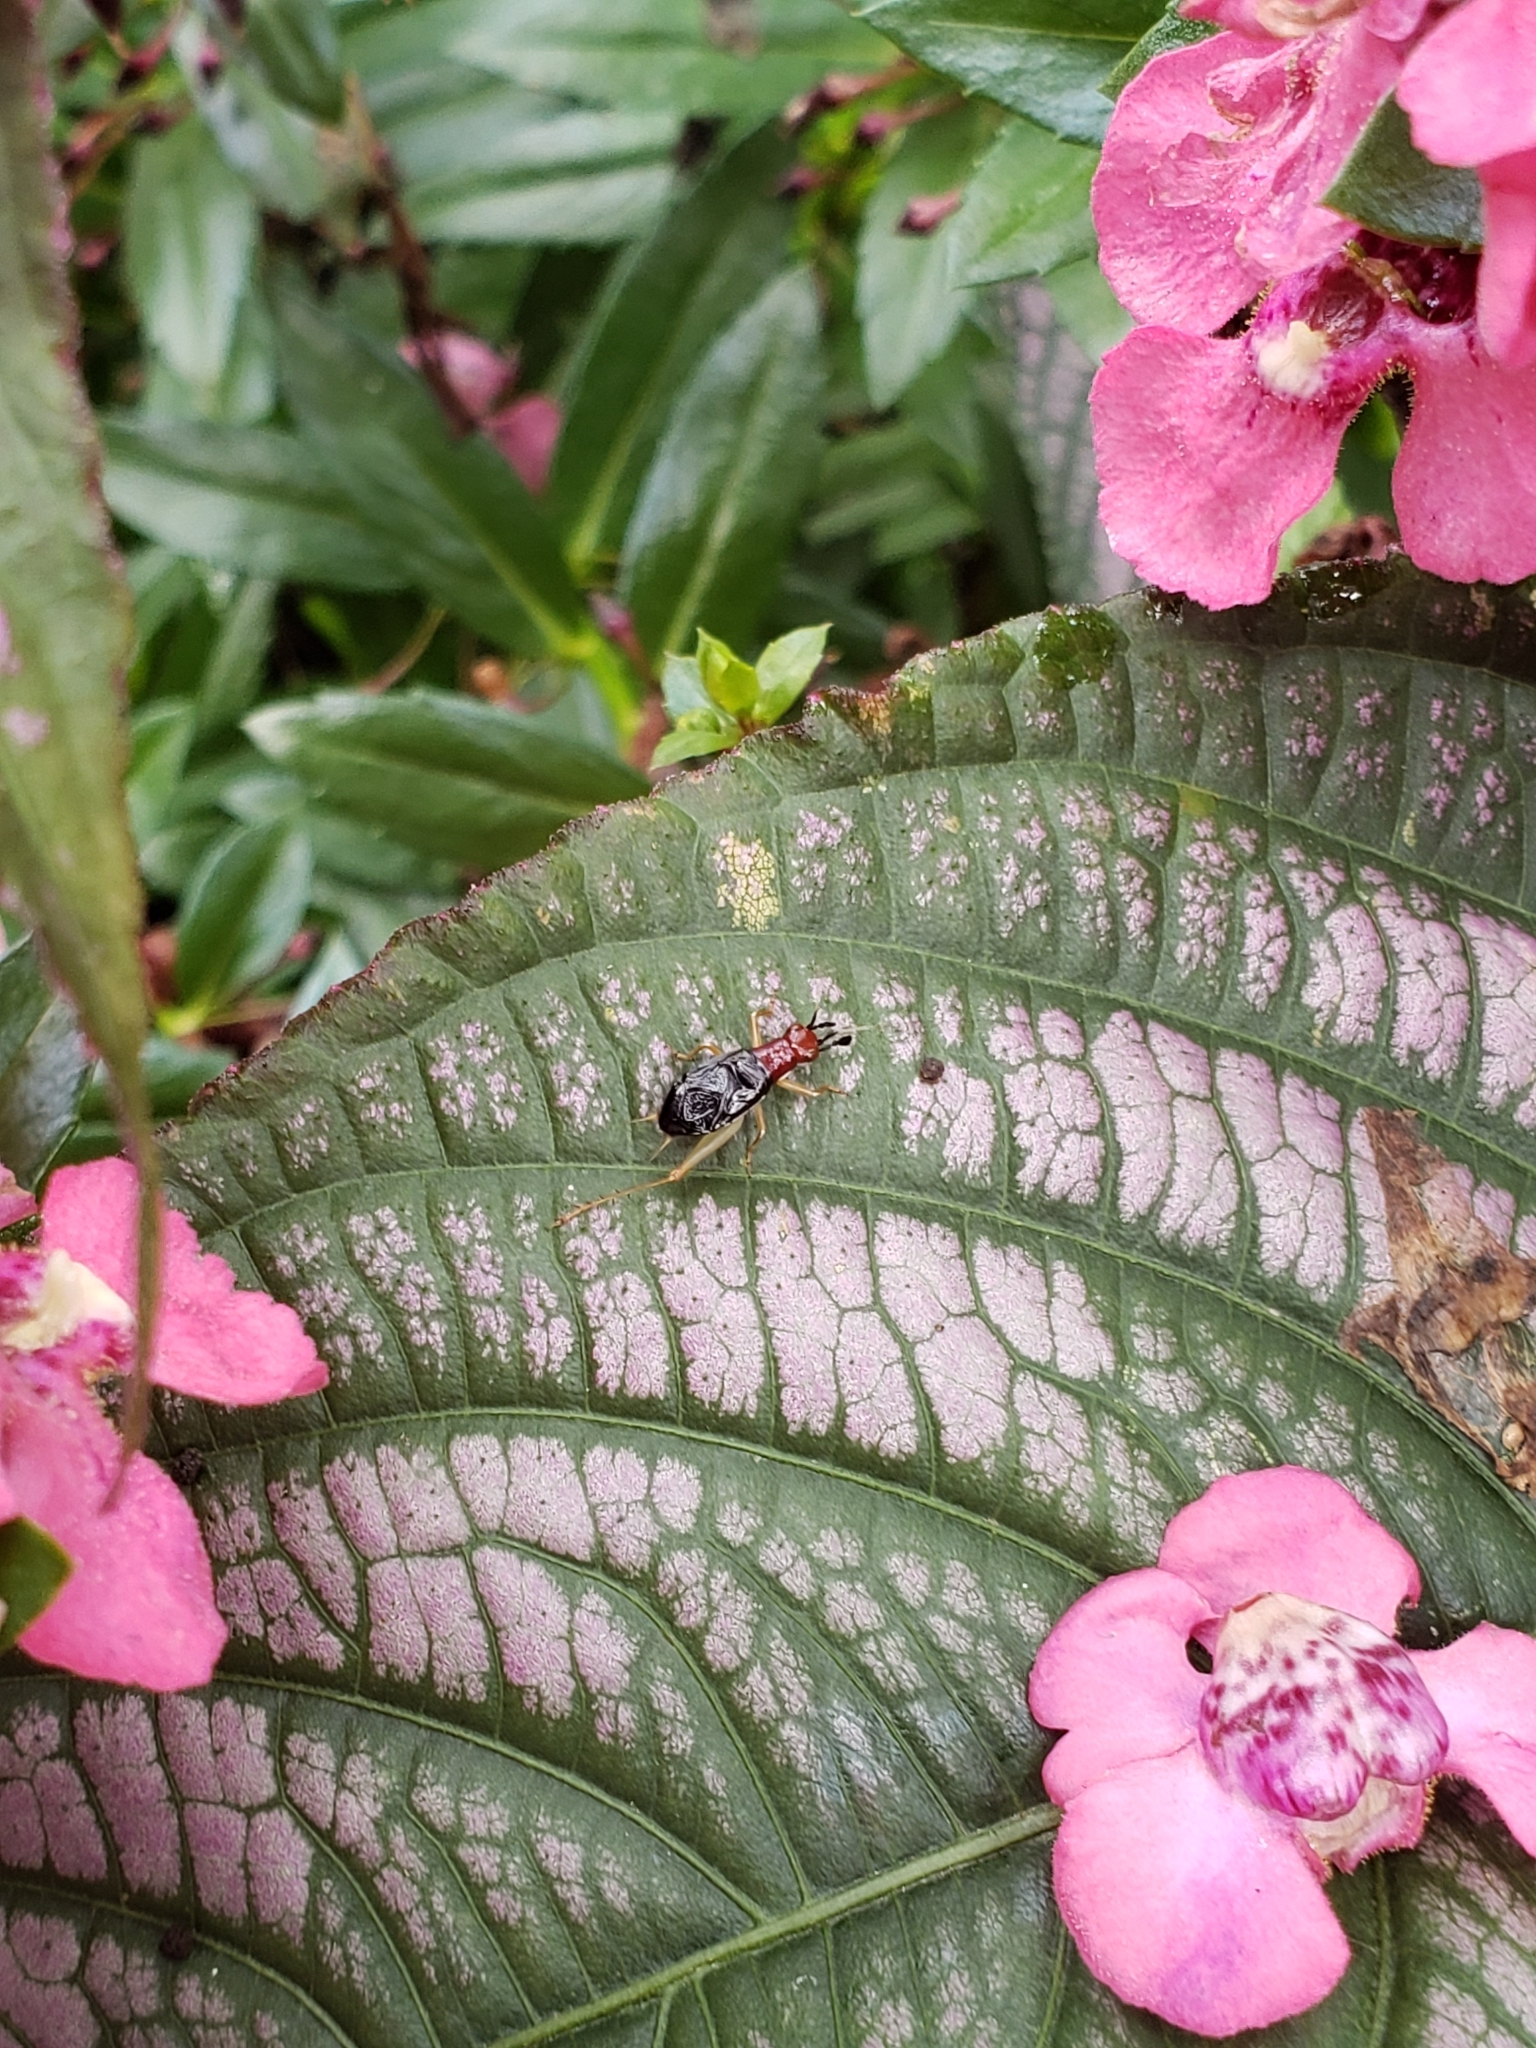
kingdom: Animalia
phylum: Arthropoda
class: Insecta
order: Orthoptera
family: Trigonidiidae
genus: Phyllopalpus
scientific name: Phyllopalpus pulchellus
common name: Handsome trig
